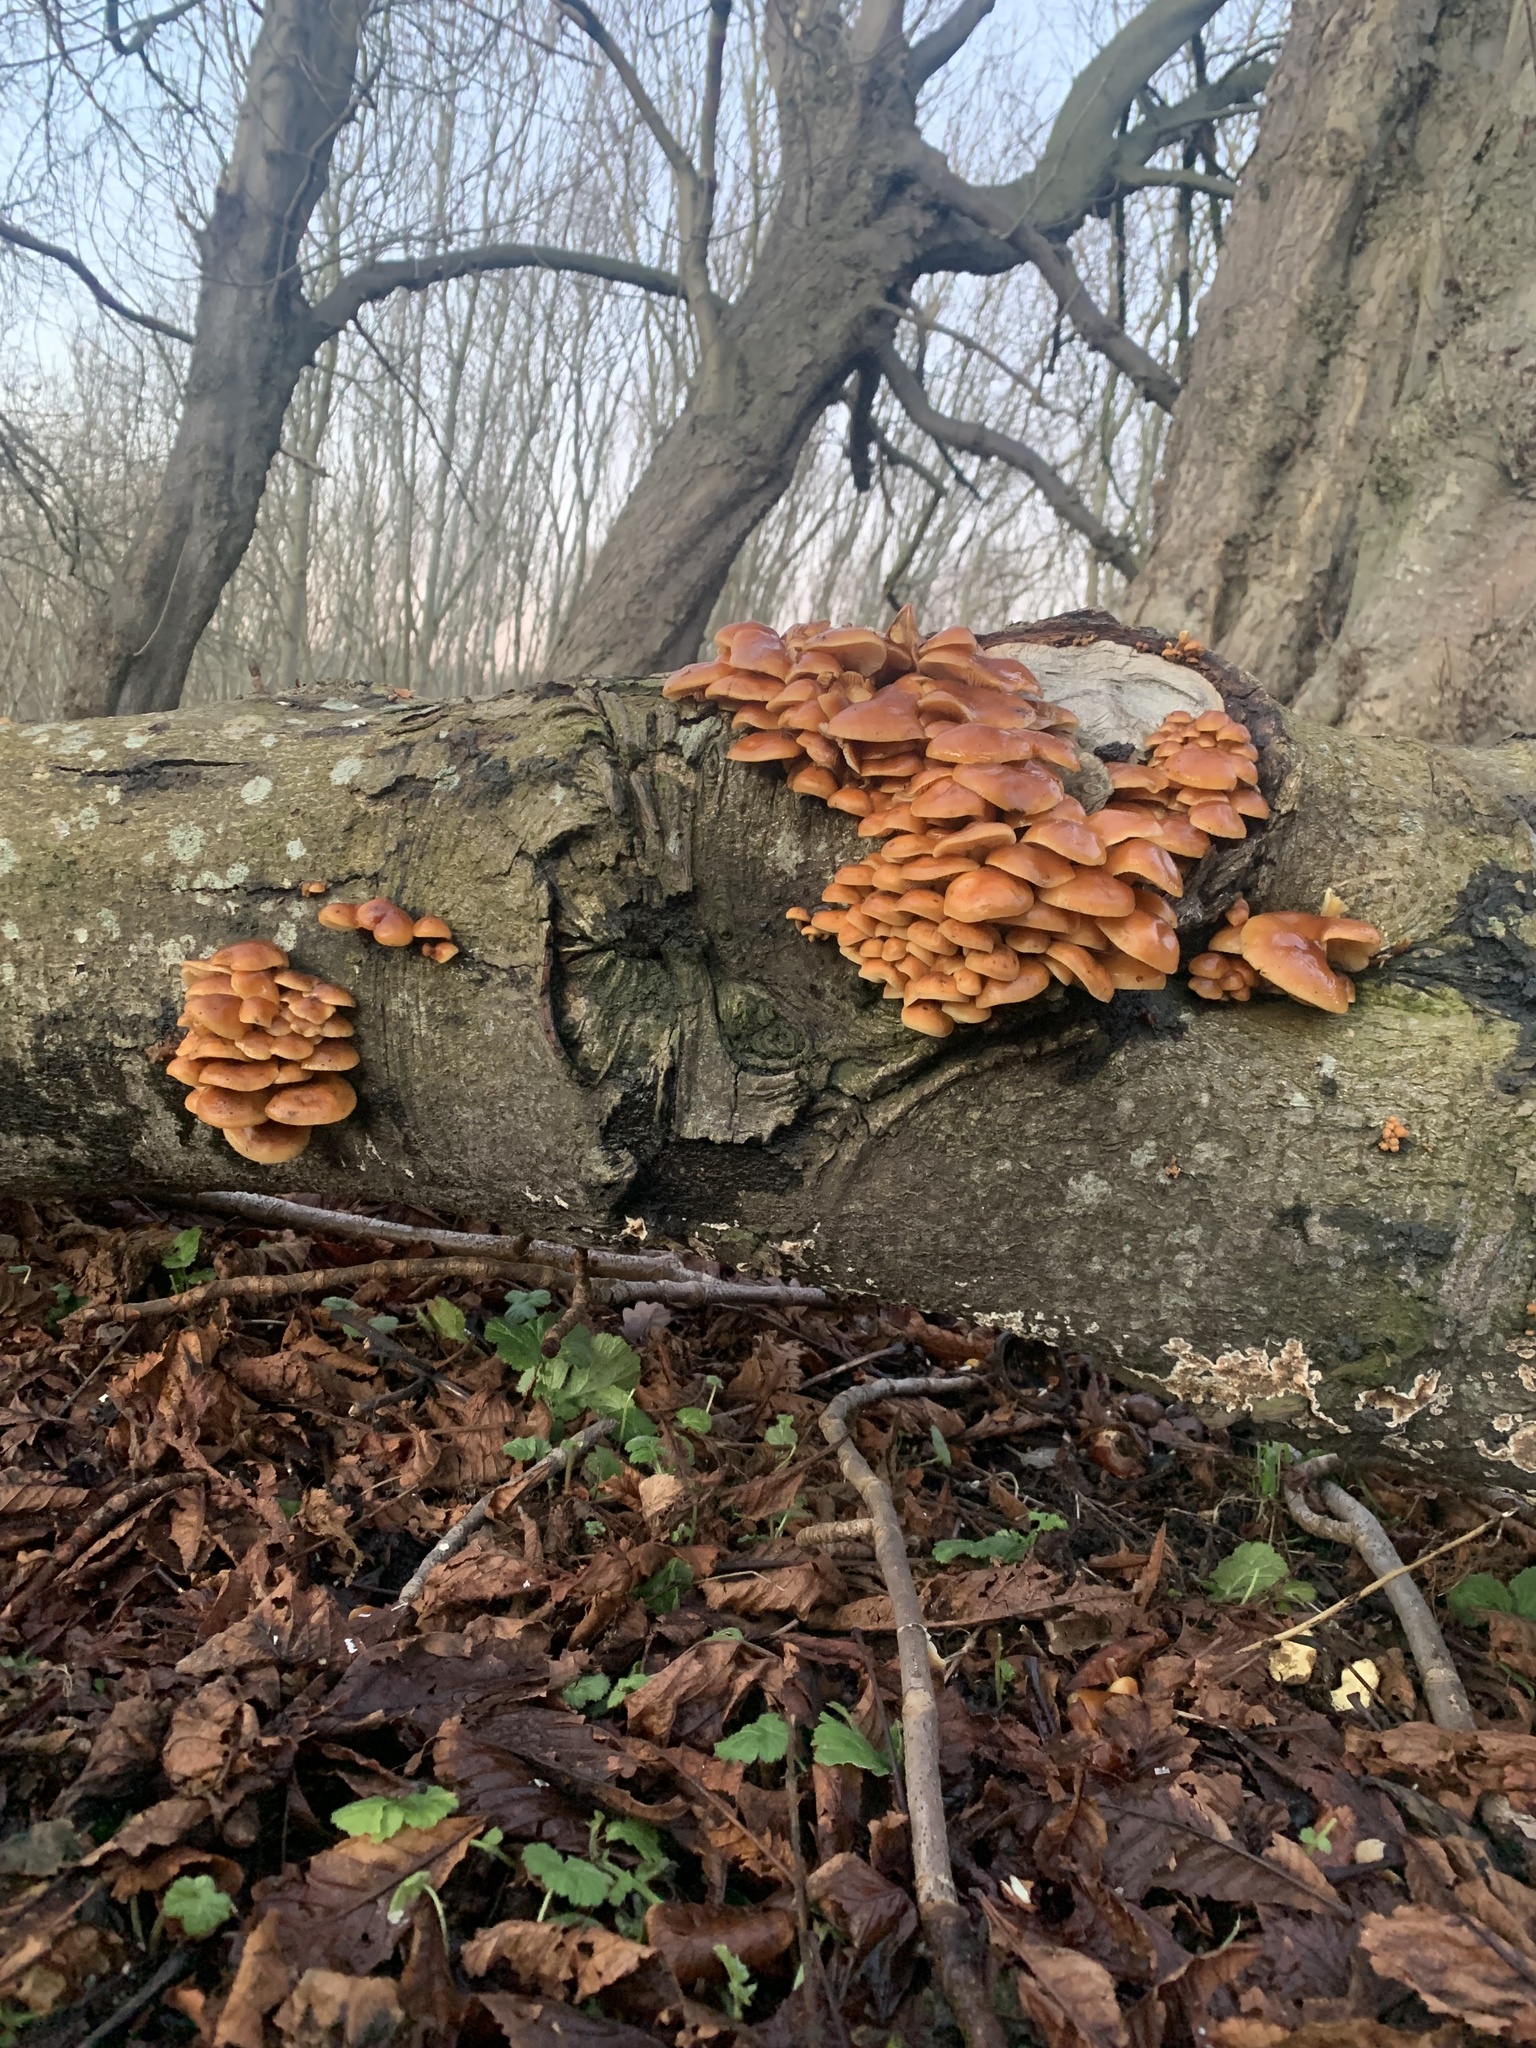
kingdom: Fungi
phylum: Basidiomycota
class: Agaricomycetes
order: Agaricales
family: Physalacriaceae
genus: Flammulina
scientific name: Flammulina
